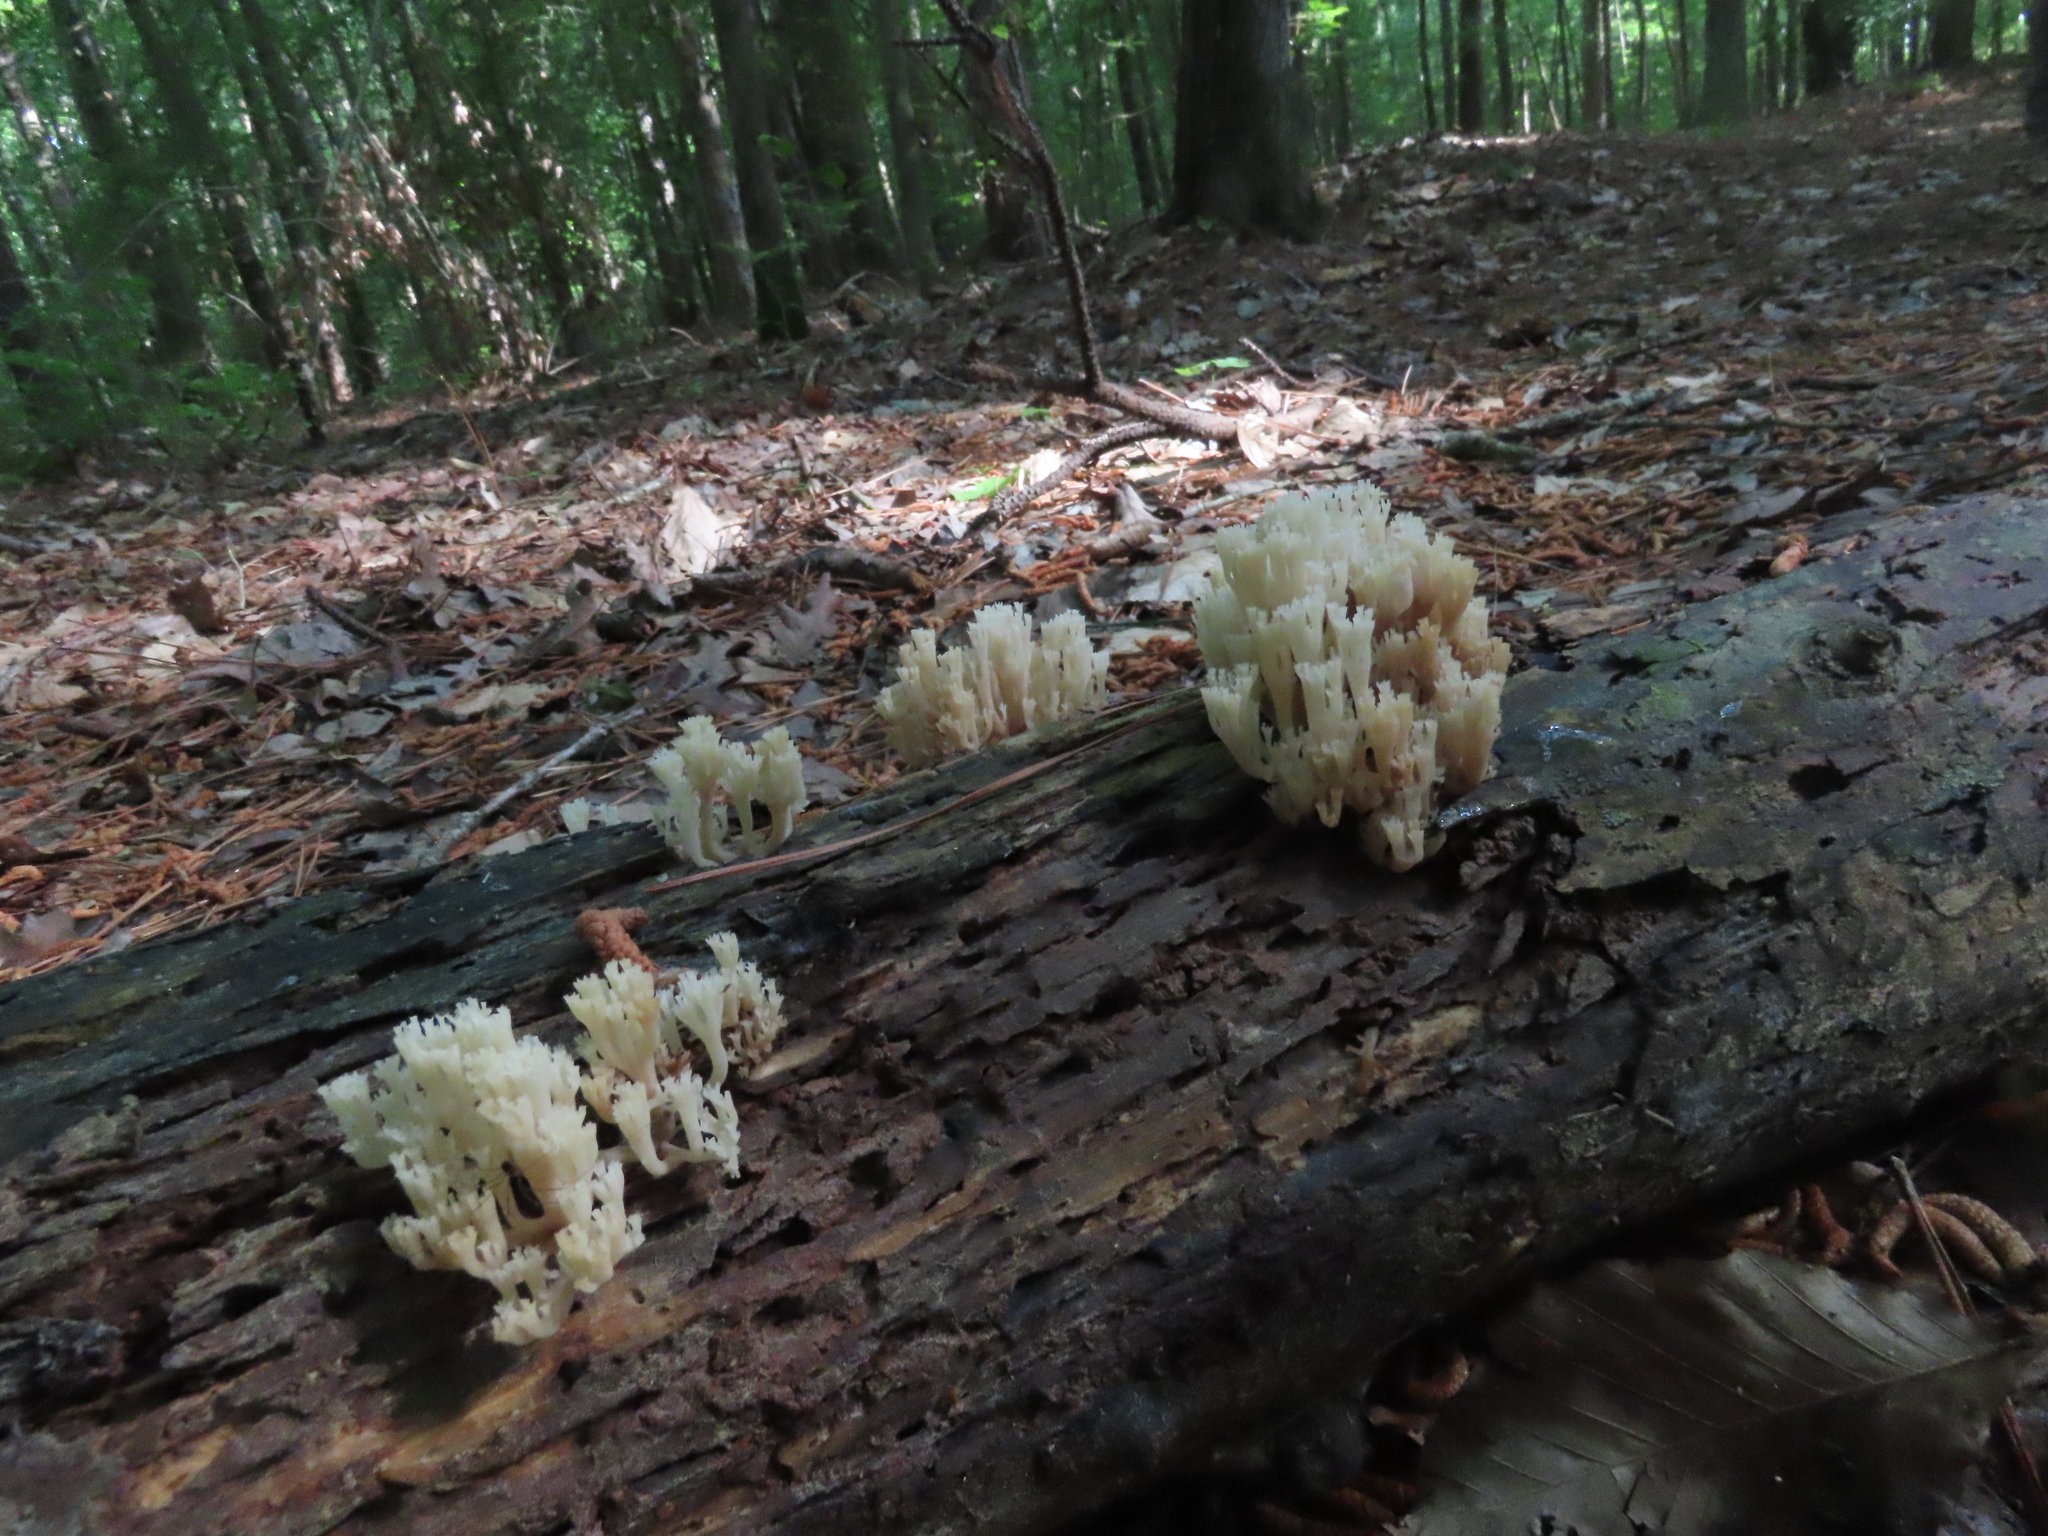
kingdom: Fungi
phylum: Basidiomycota
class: Agaricomycetes
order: Russulales
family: Auriscalpiaceae
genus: Artomyces
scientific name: Artomyces pyxidatus
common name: Crown-tipped coral fungus
